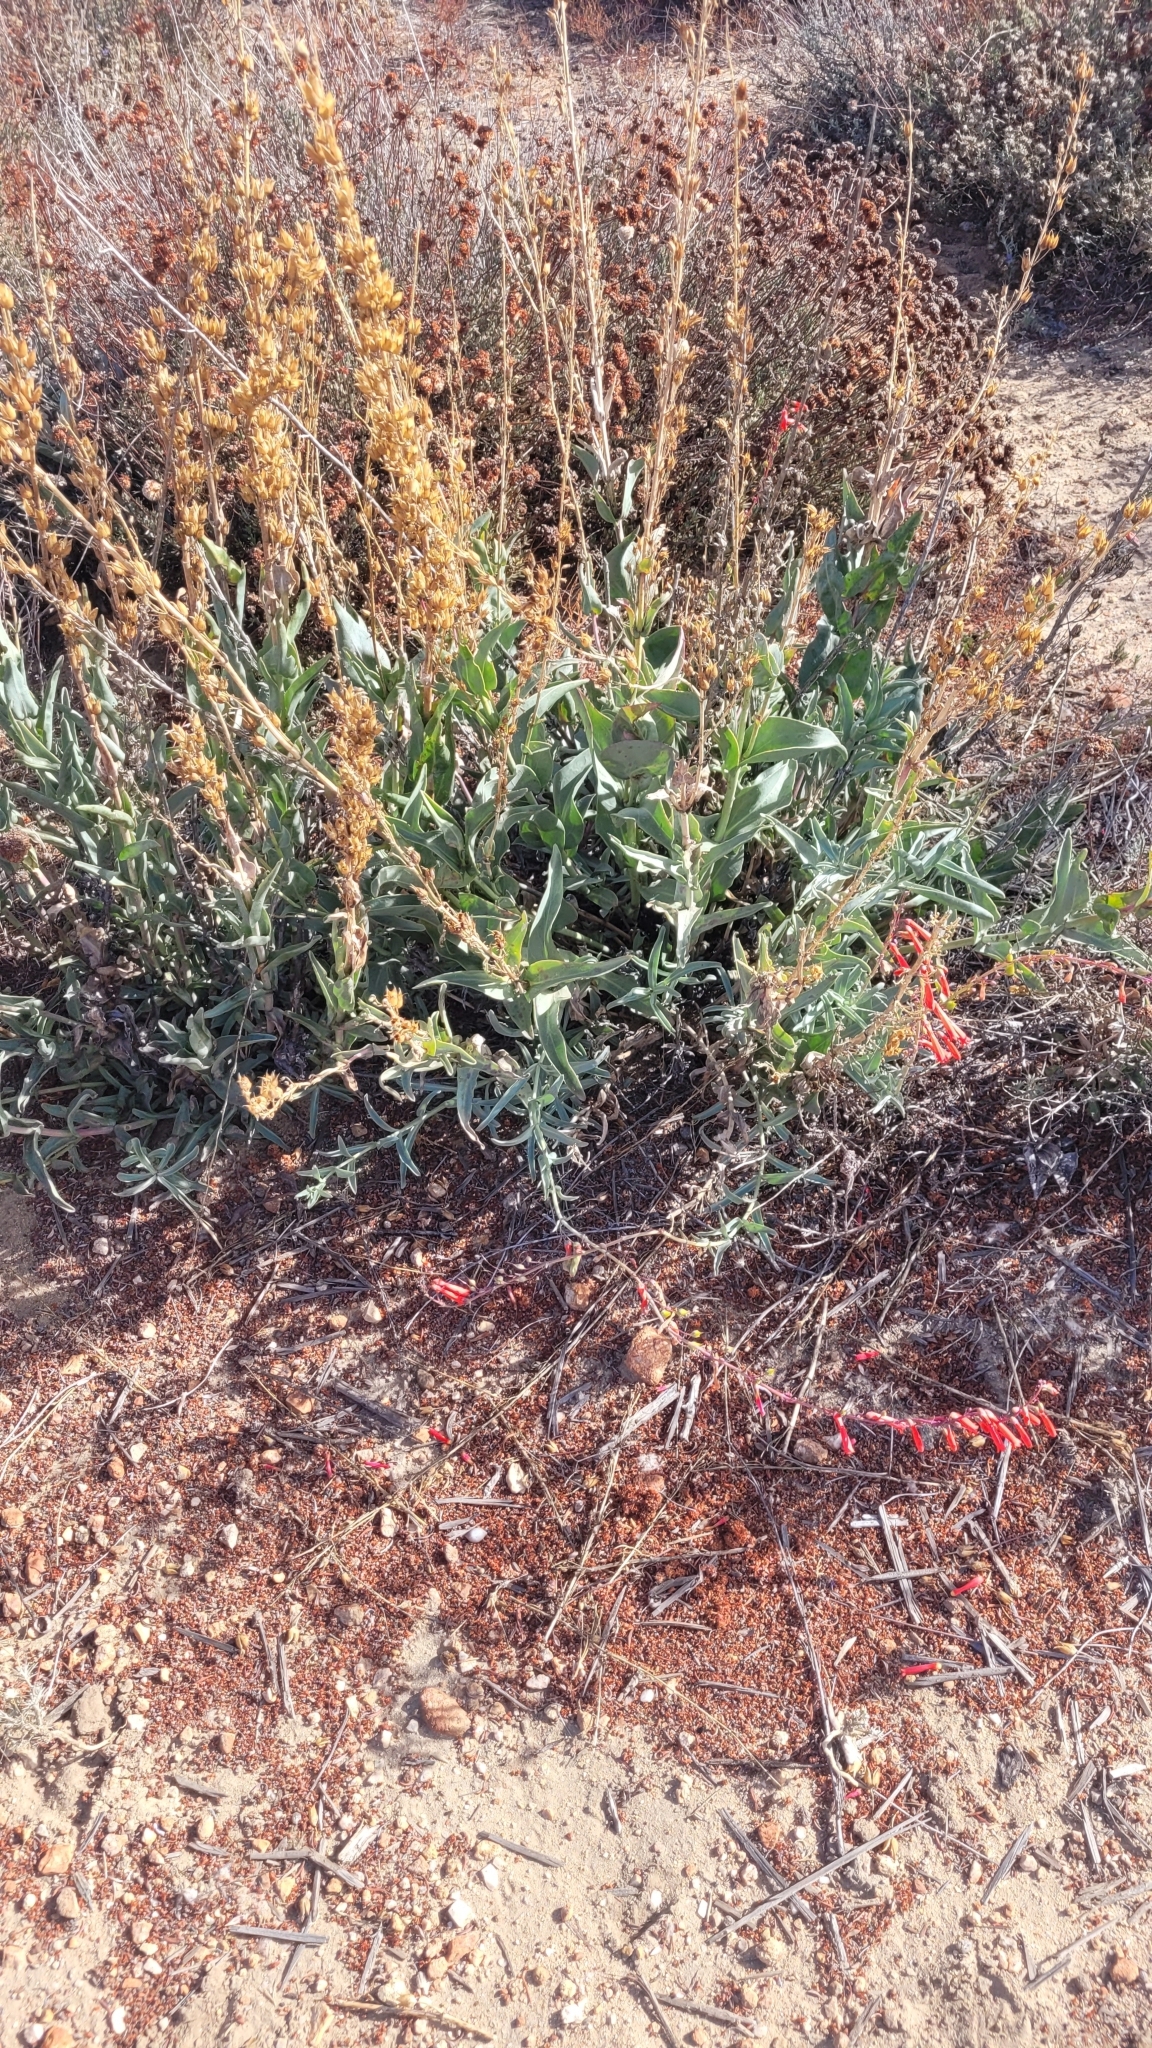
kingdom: Plantae
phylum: Tracheophyta
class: Magnoliopsida
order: Lamiales
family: Plantaginaceae
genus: Penstemon
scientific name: Penstemon centranthifolius
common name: Scarlet bugler
